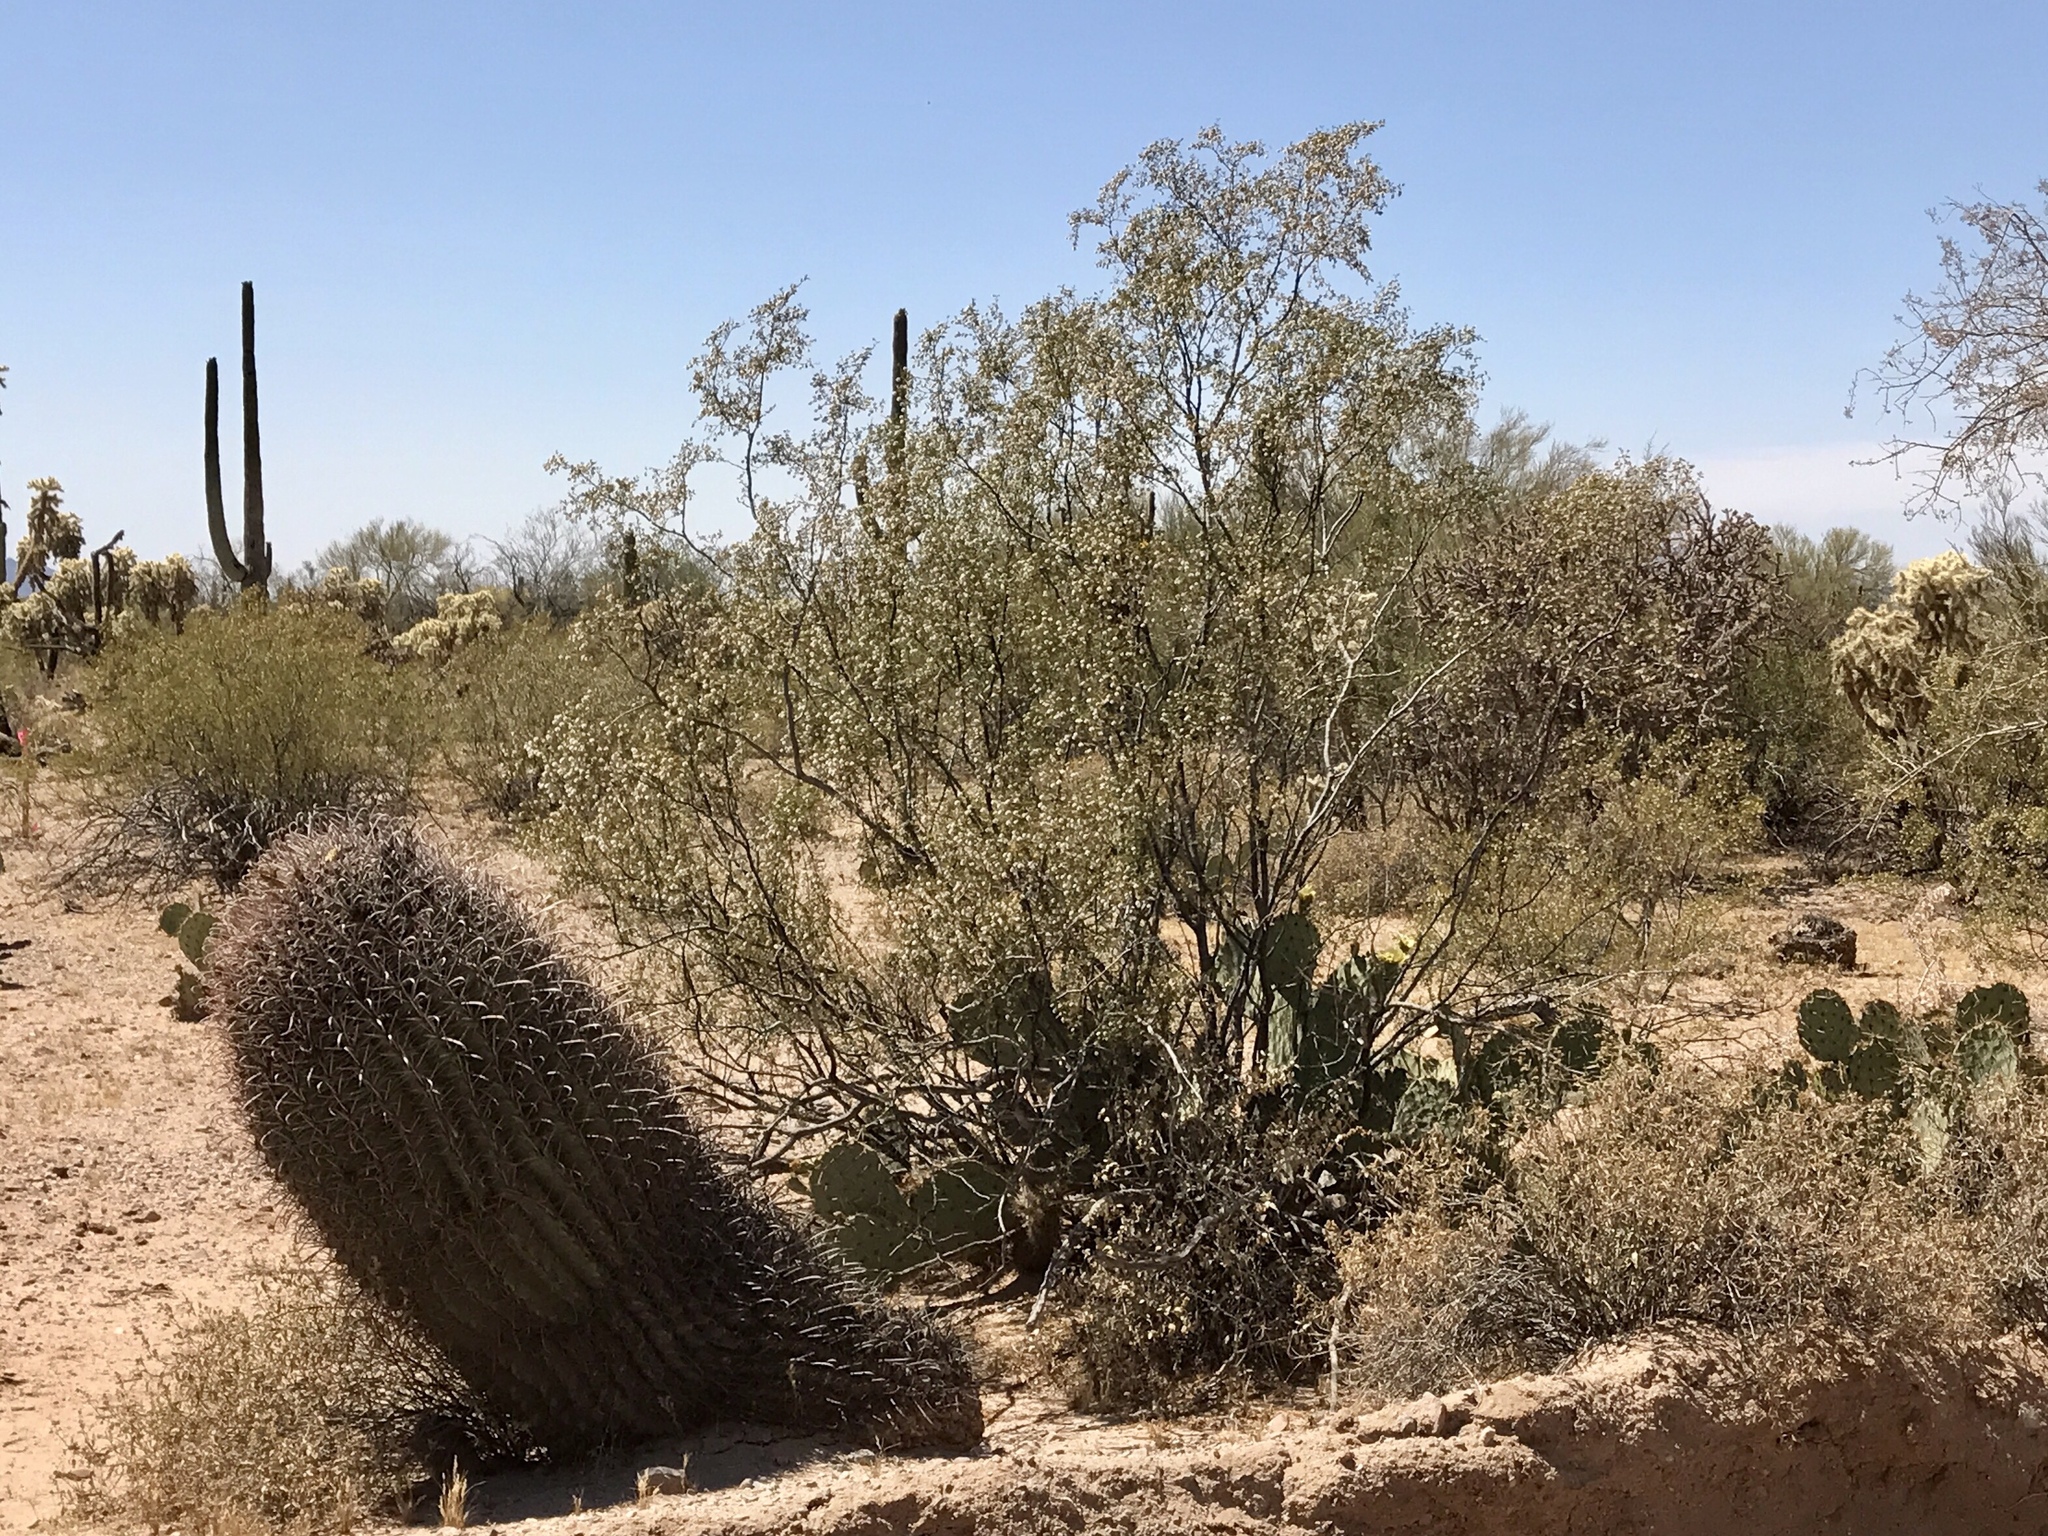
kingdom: Plantae
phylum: Tracheophyta
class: Magnoliopsida
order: Caryophyllales
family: Cactaceae
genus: Ferocactus
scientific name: Ferocactus wislizeni
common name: Candy barrel cactus
